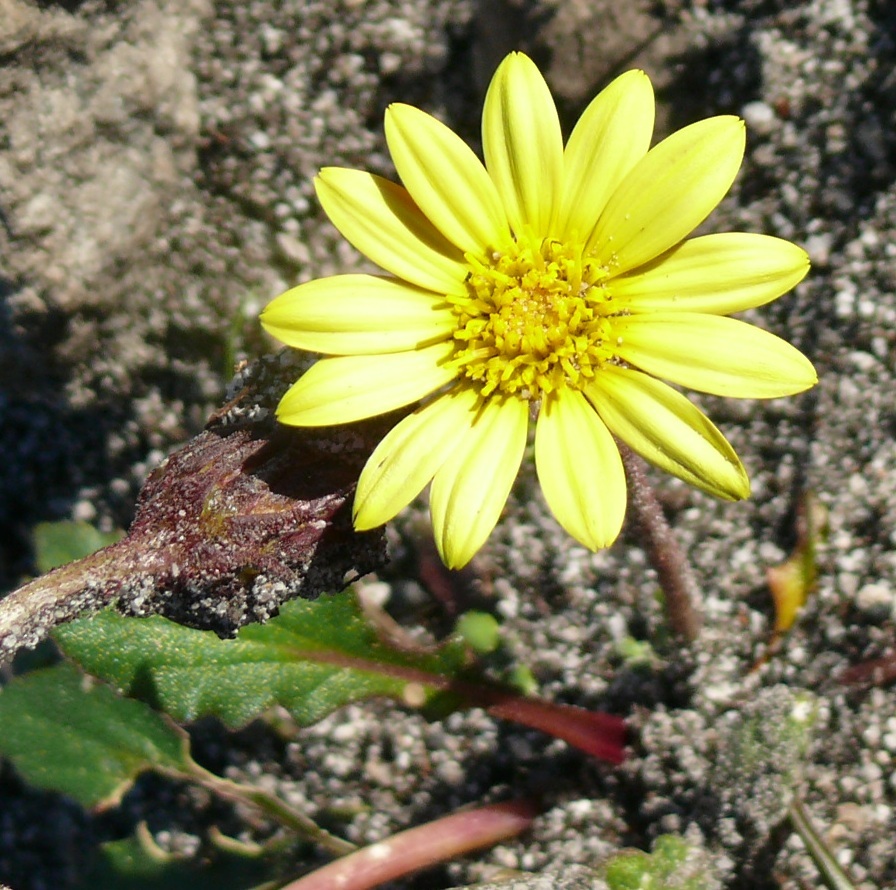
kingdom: Plantae
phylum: Tracheophyta
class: Magnoliopsida
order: Asterales
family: Asteraceae
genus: Haplocarpha
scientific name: Haplocarpha lanata
